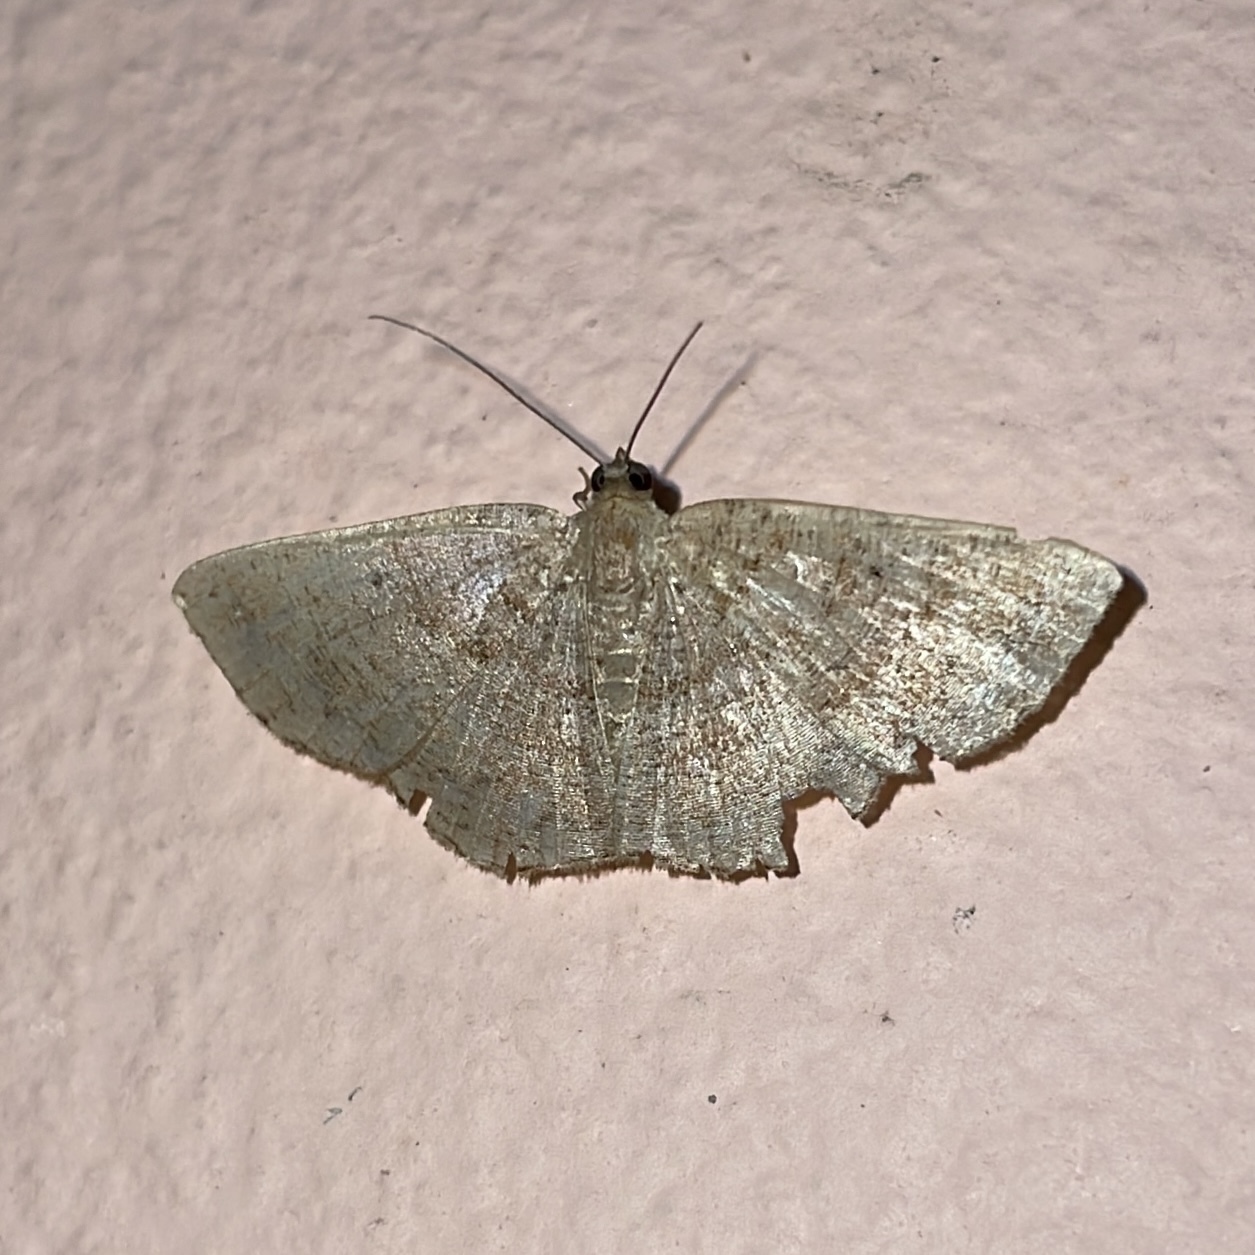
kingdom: Animalia
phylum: Arthropoda
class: Insecta
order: Lepidoptera
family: Geometridae
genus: Parilexia
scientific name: Parilexia nicetaria
